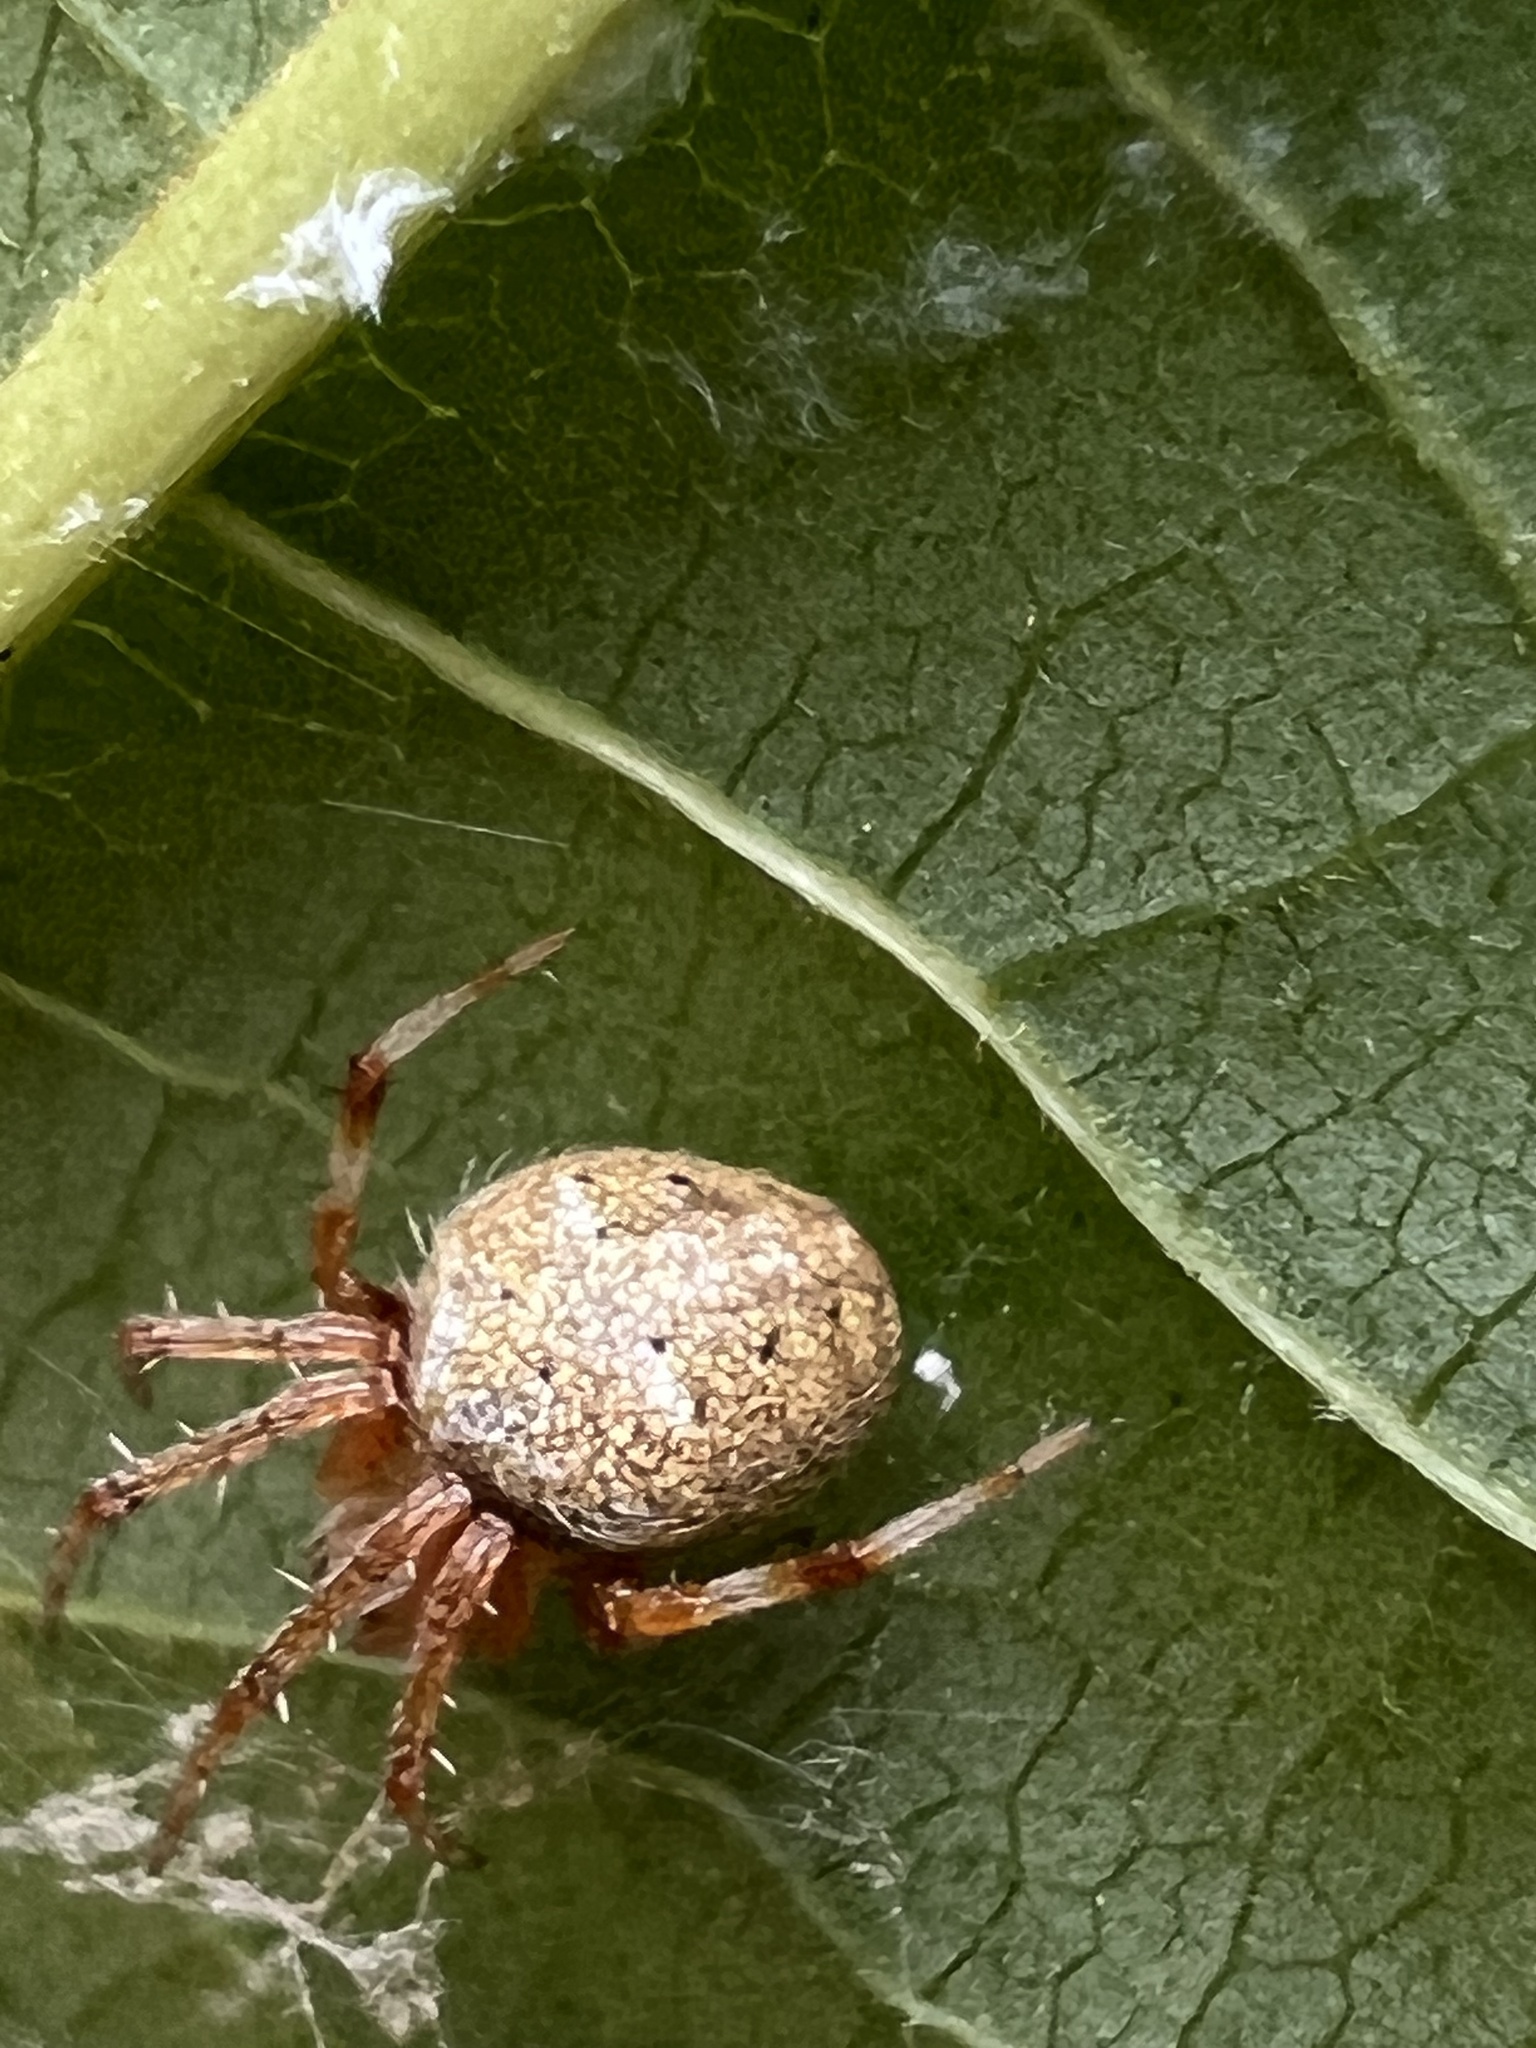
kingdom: Animalia
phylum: Arthropoda
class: Arachnida
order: Araneae
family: Araneidae
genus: Neoscona
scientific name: Neoscona arabesca
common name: Orb weavers
